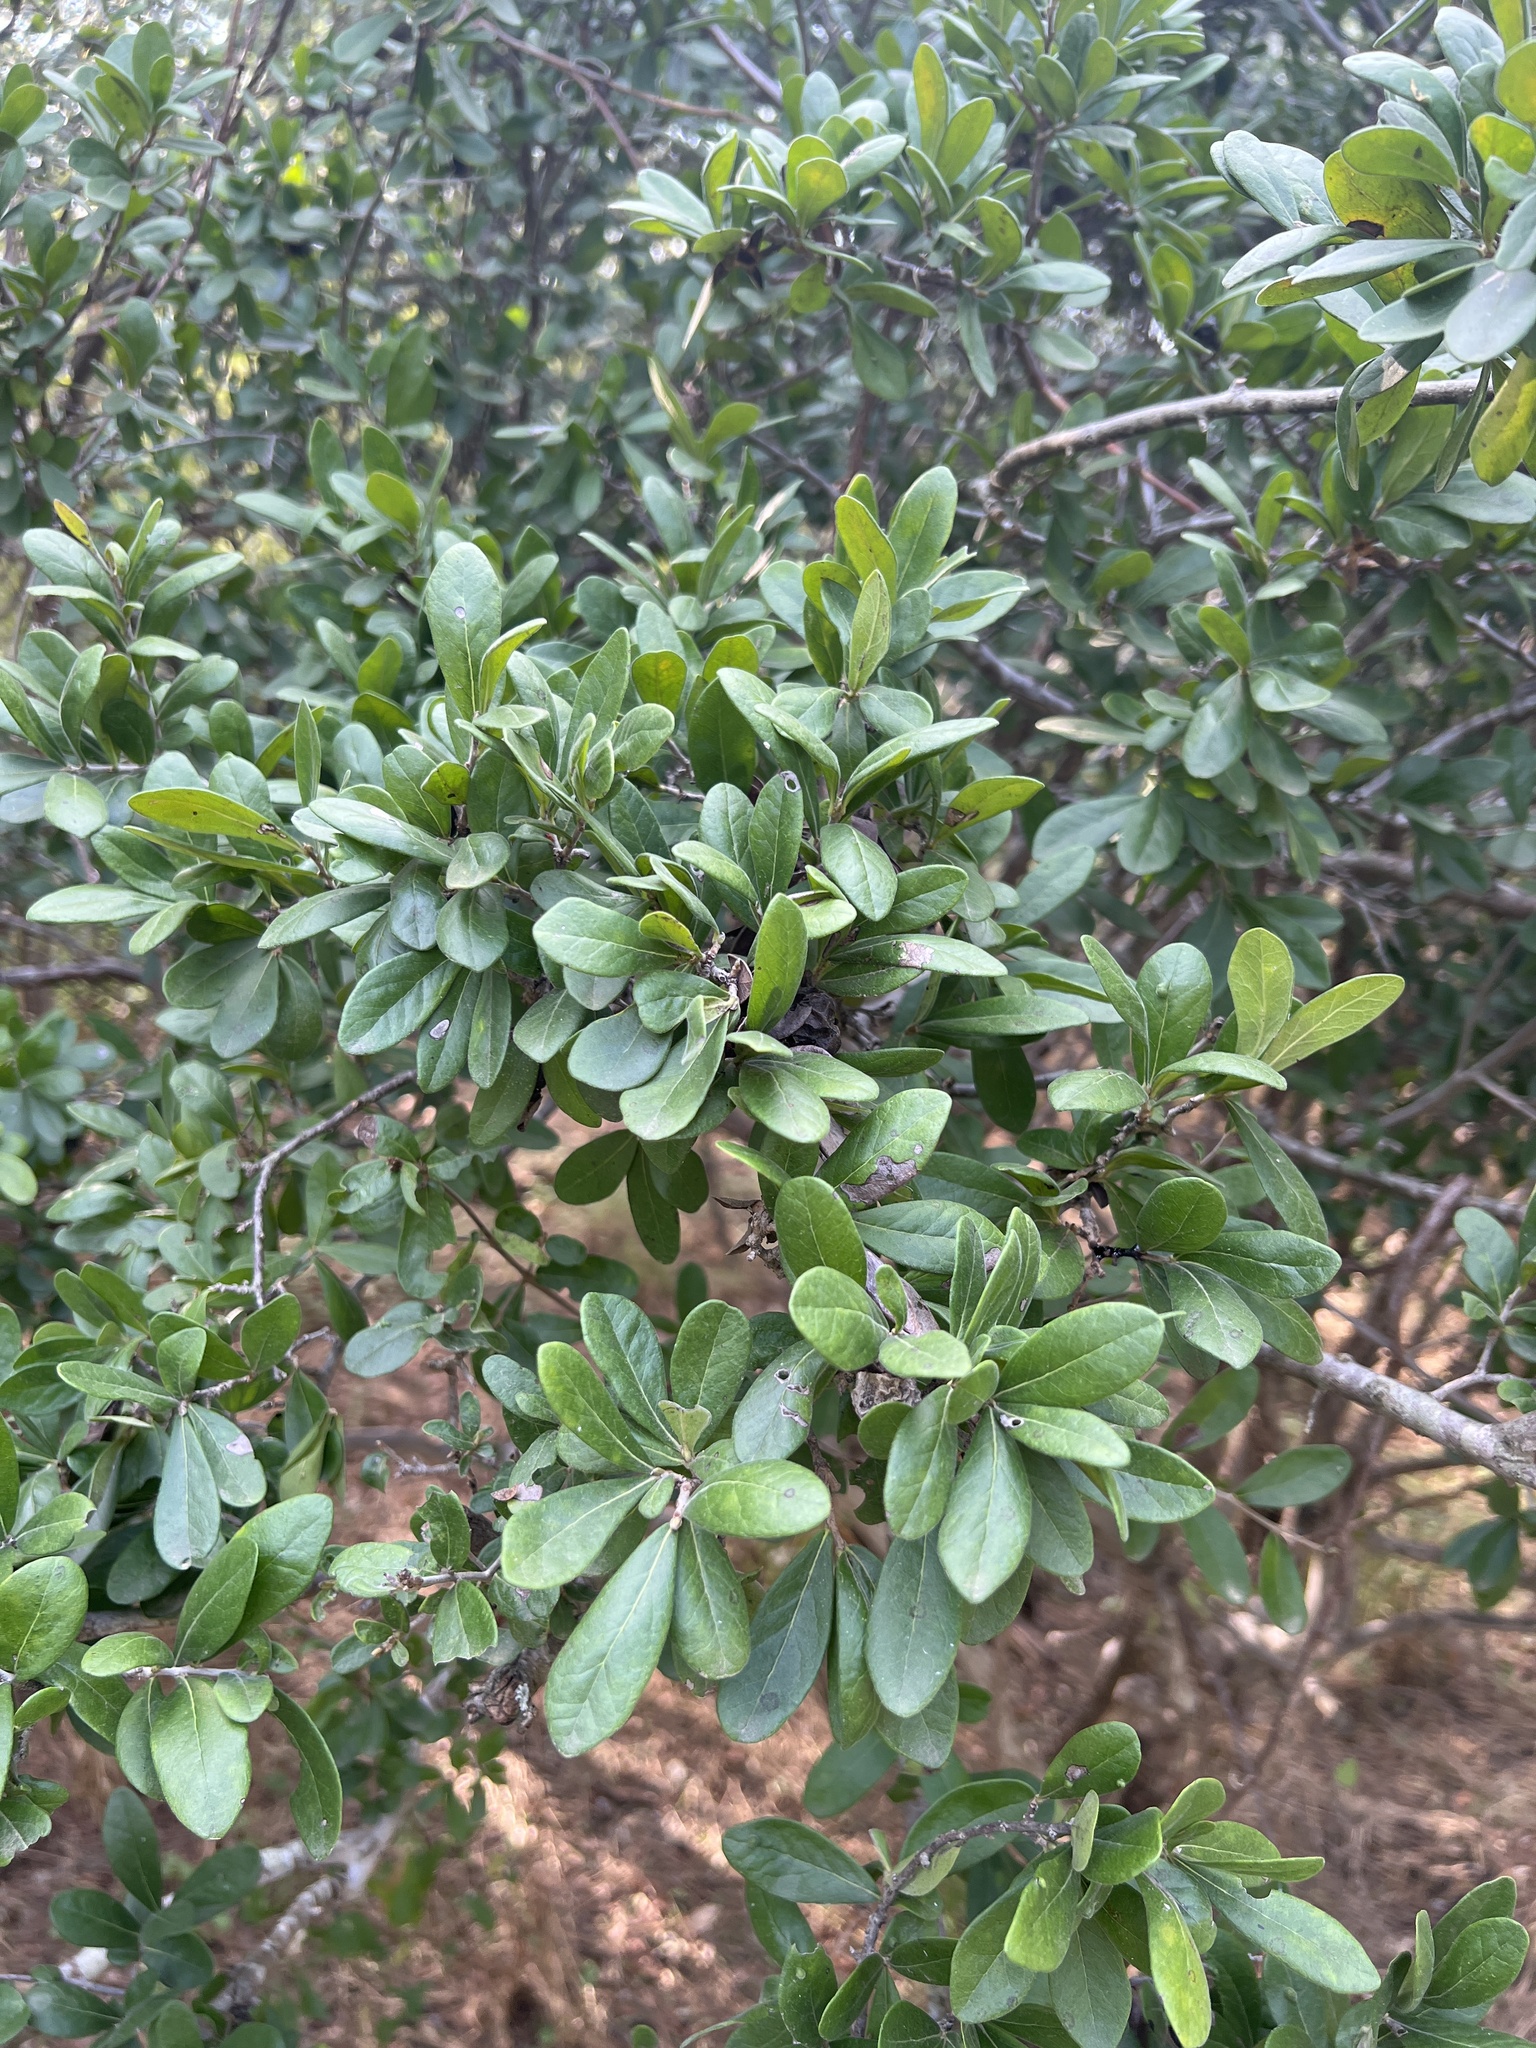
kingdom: Plantae
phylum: Tracheophyta
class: Magnoliopsida
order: Ericales
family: Ebenaceae
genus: Diospyros
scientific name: Diospyros texana
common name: Texas persimmon
